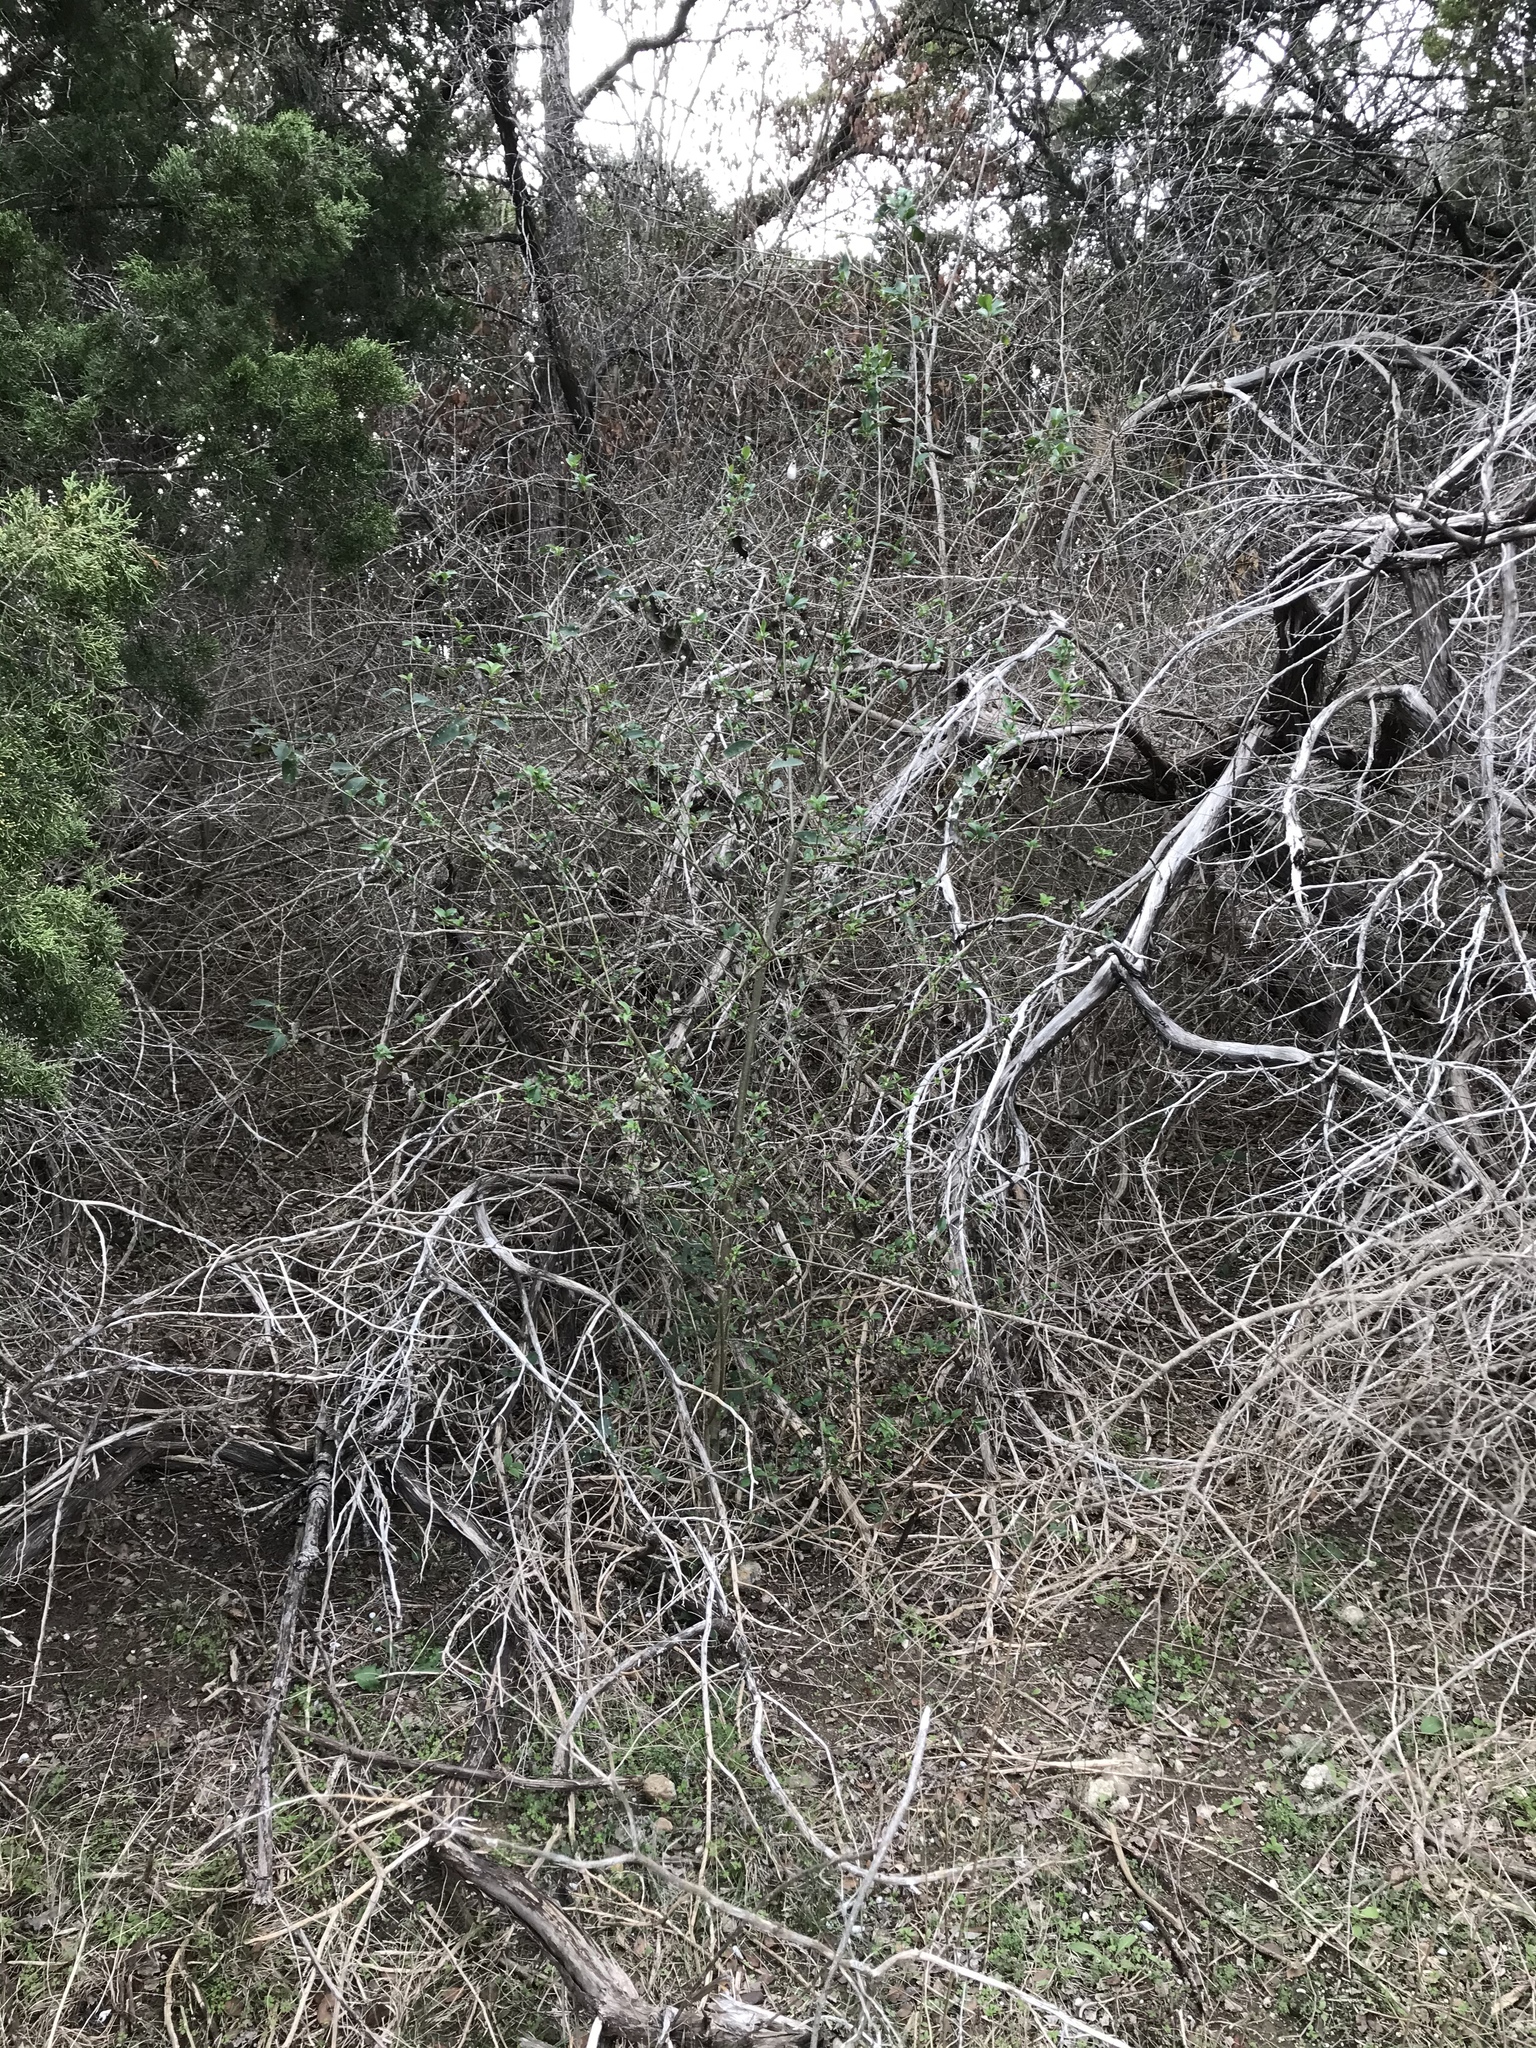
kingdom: Plantae
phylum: Tracheophyta
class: Magnoliopsida
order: Lamiales
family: Oleaceae
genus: Ligustrum
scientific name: Ligustrum lucidum
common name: Glossy privet
